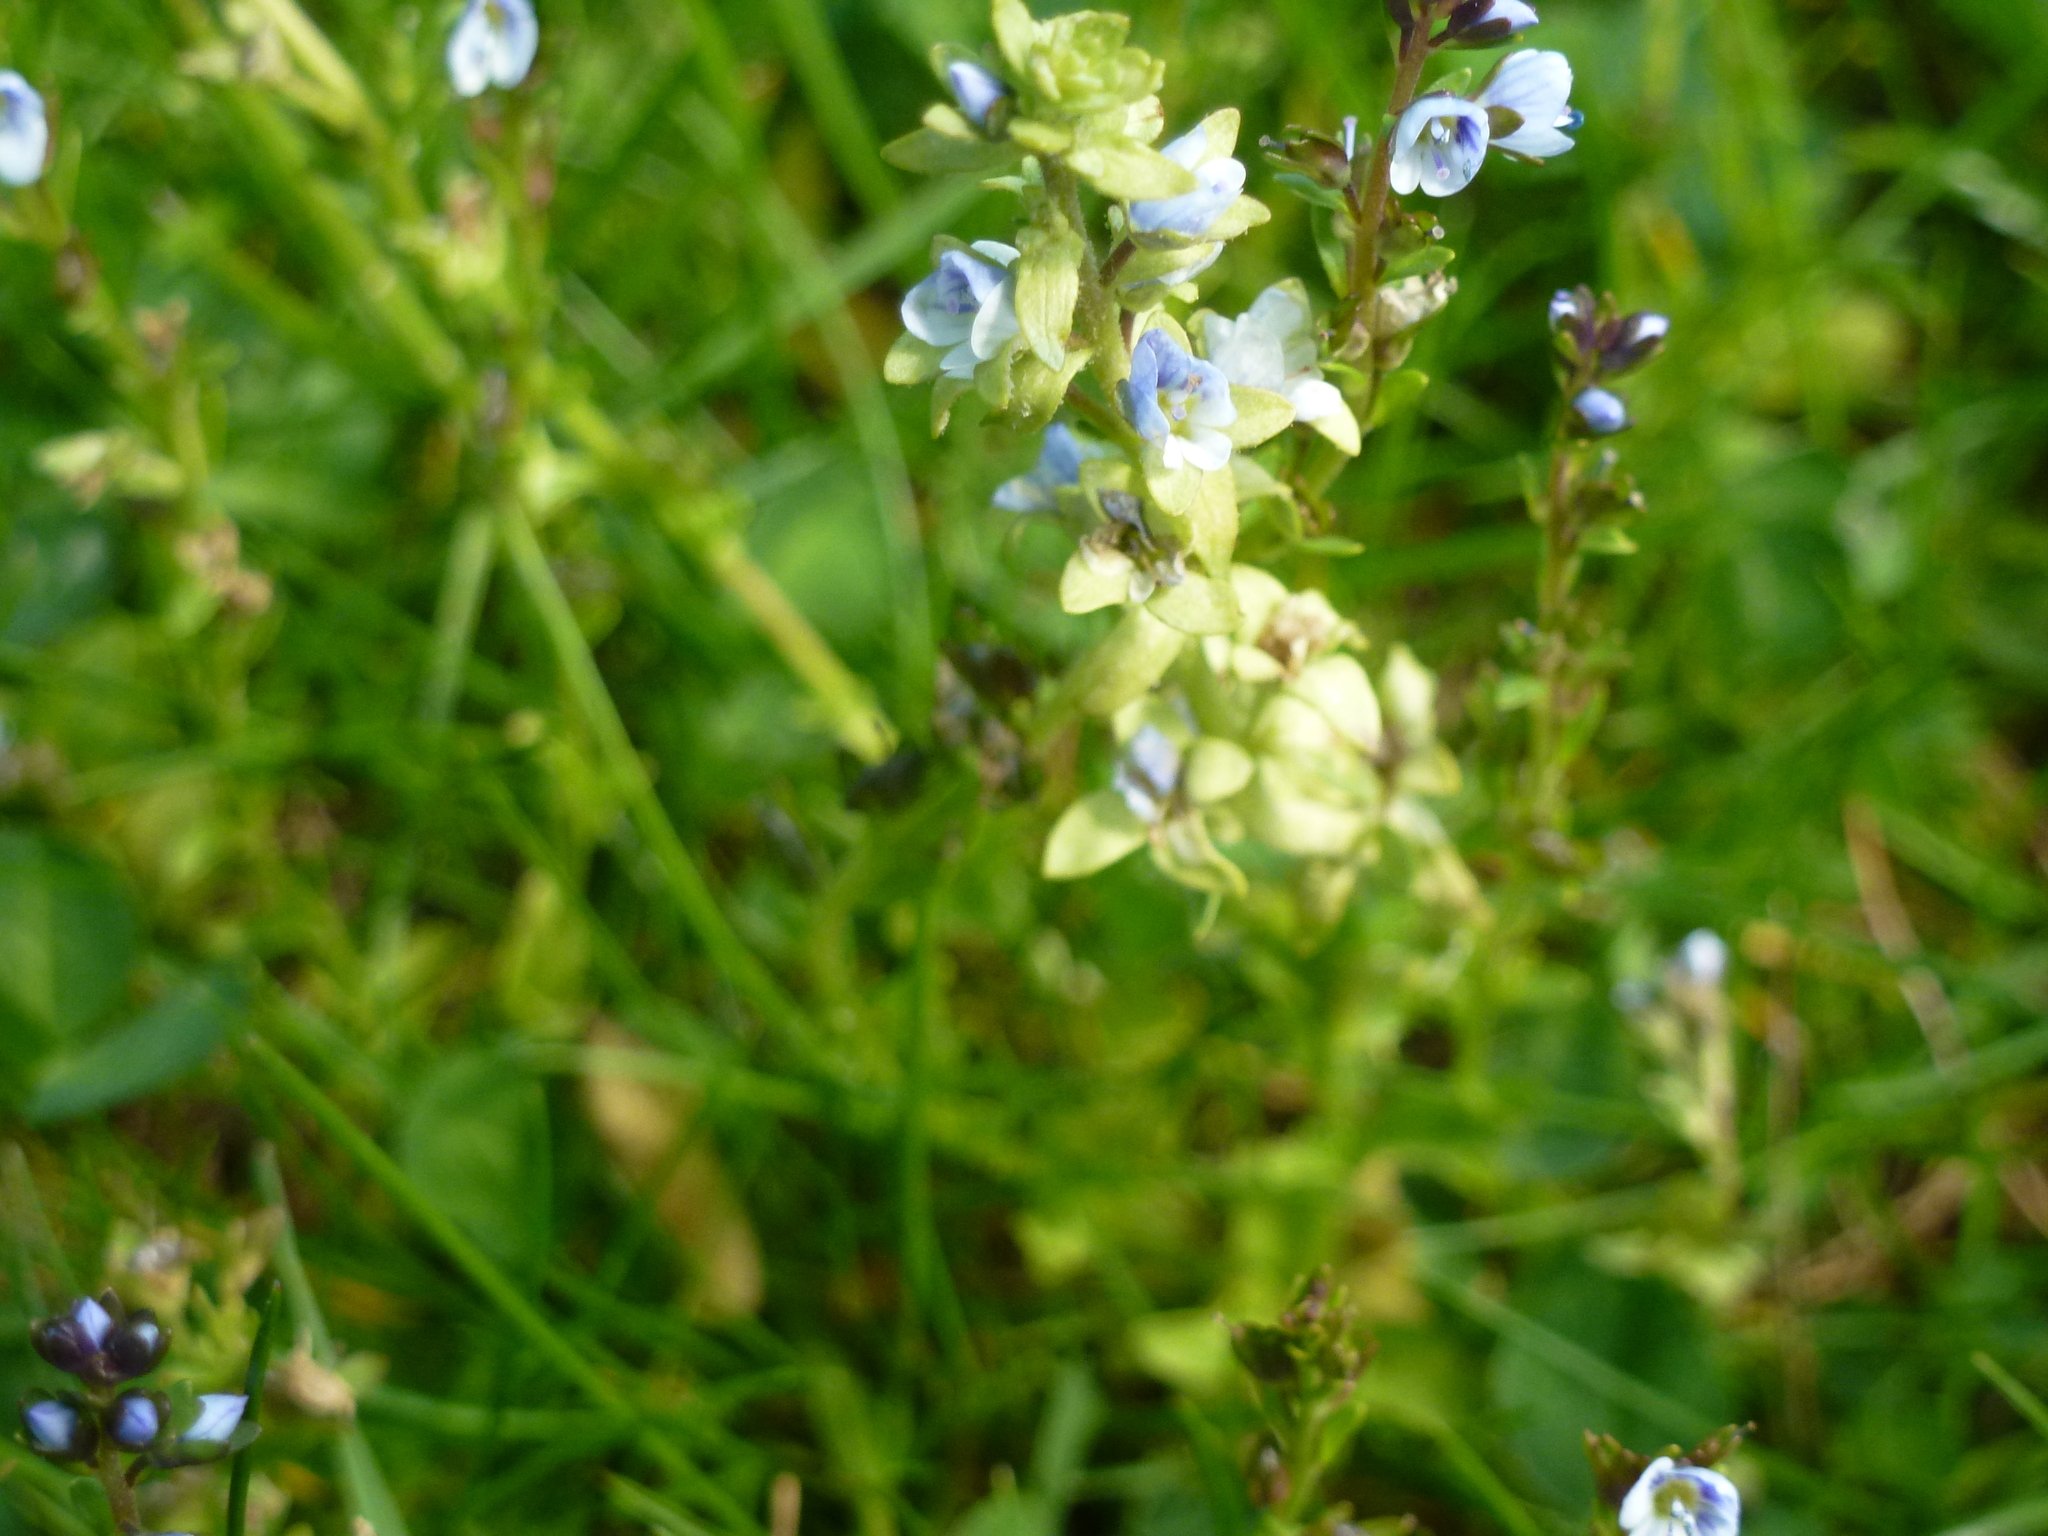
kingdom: Plantae
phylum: Tracheophyta
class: Magnoliopsida
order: Lamiales
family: Plantaginaceae
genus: Veronica
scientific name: Veronica serpyllifolia
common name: Thyme-leaved speedwell
